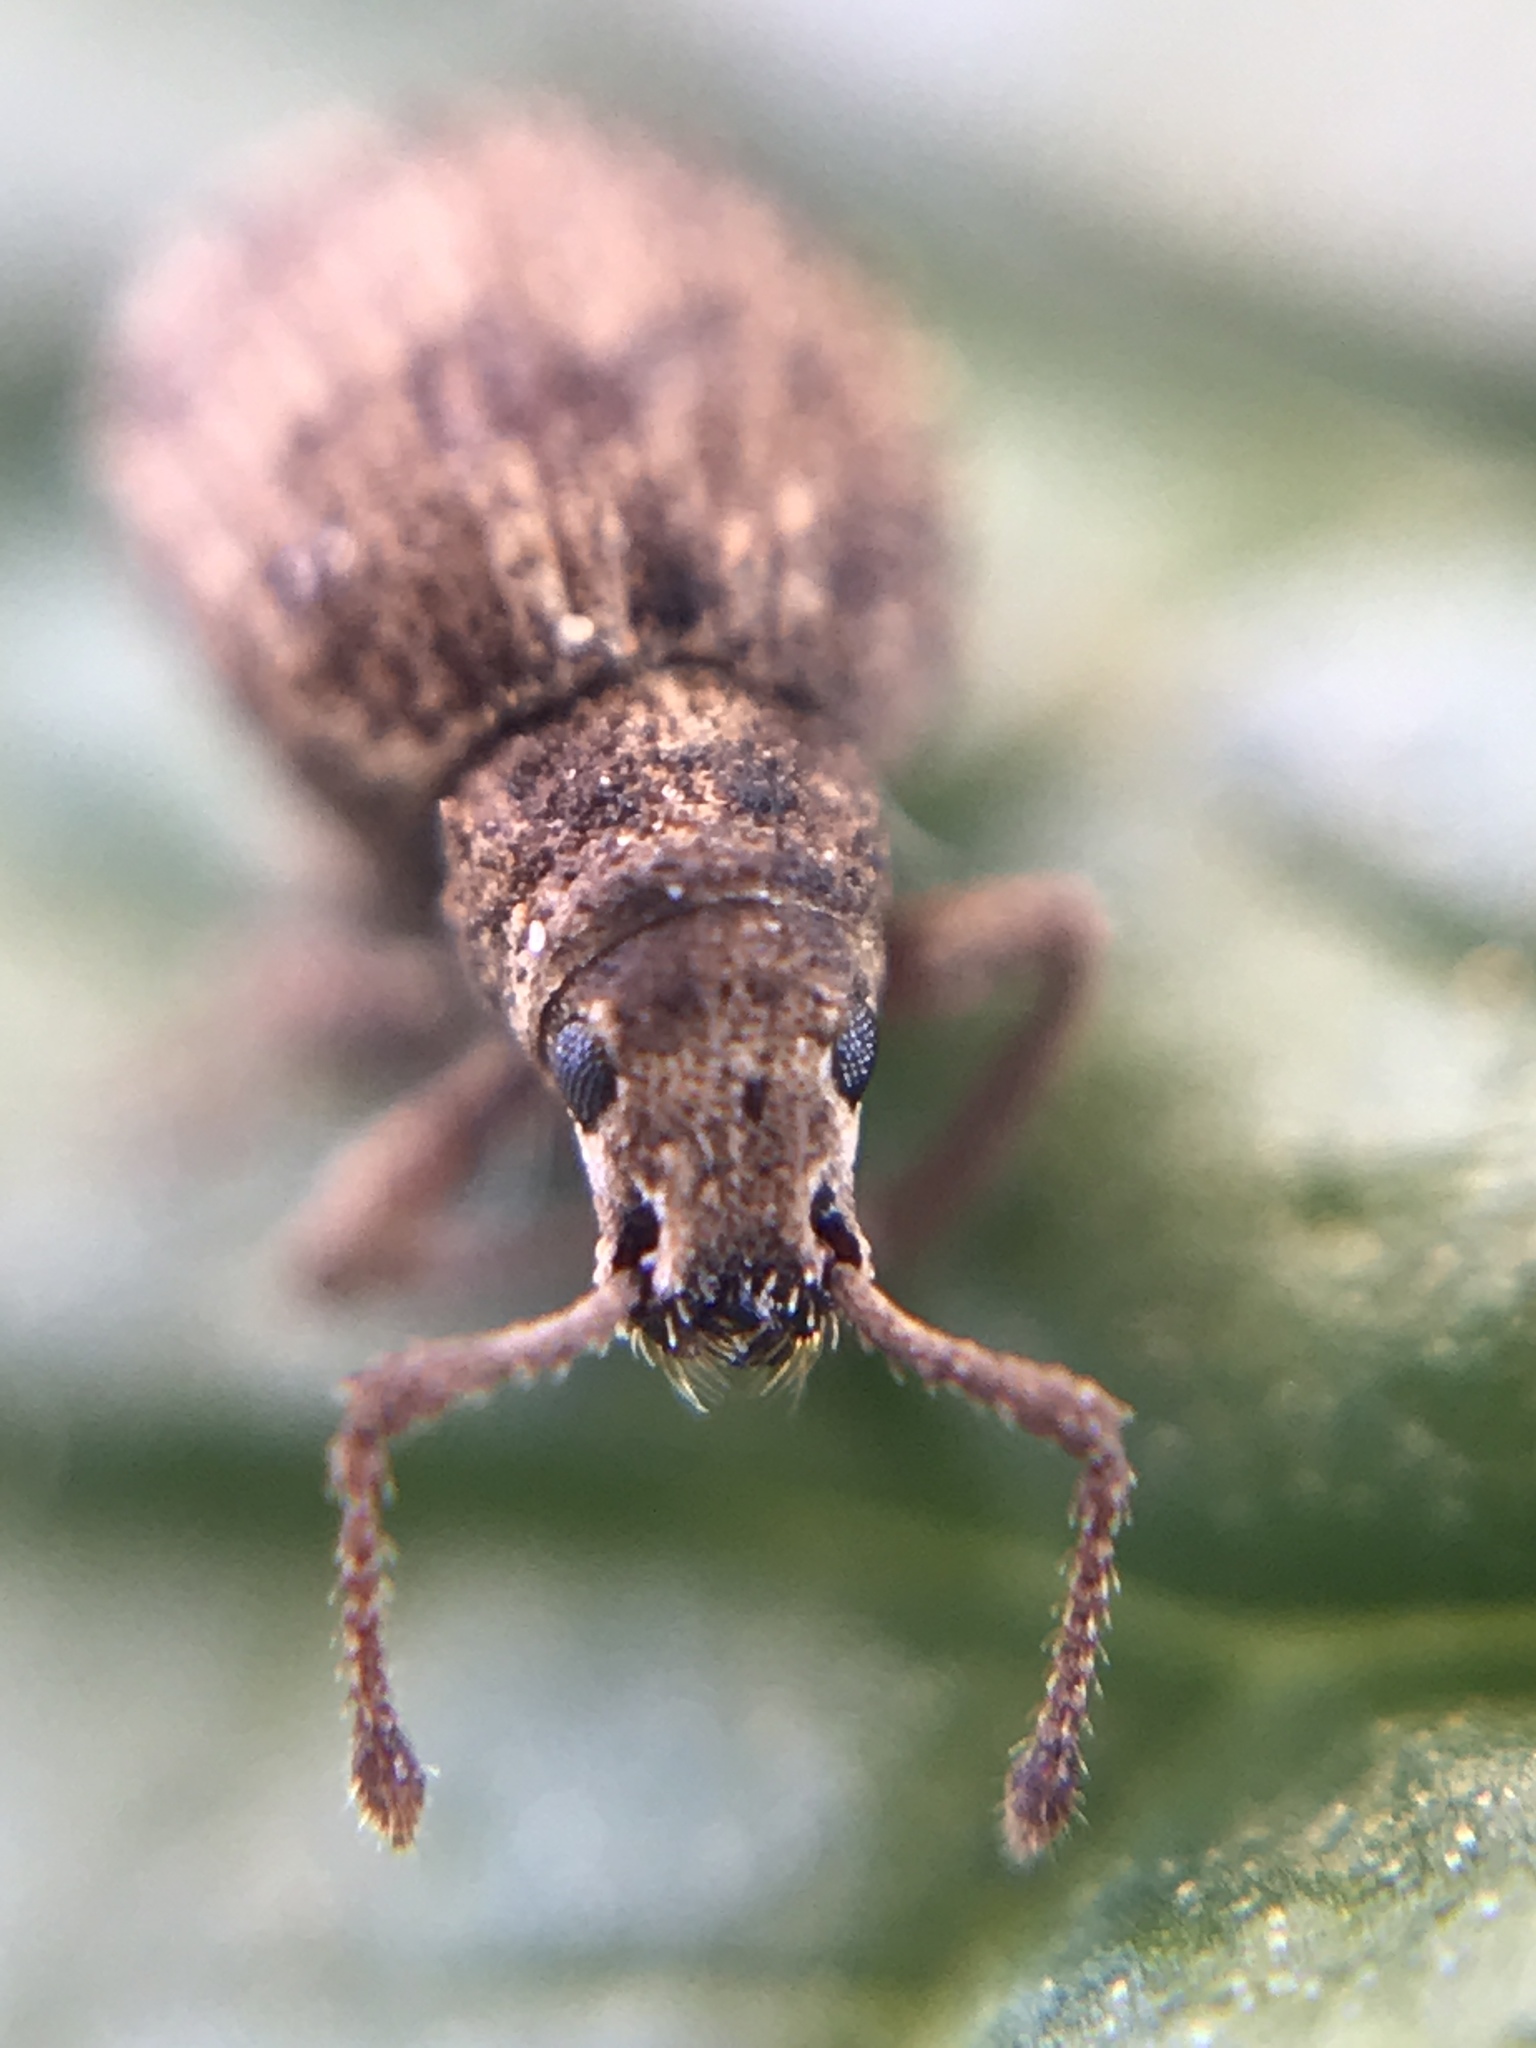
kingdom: Animalia
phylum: Arthropoda
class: Insecta
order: Coleoptera
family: Curculionidae
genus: Myosides
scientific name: Myosides seriehispidus
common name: Broadnosed weevil
